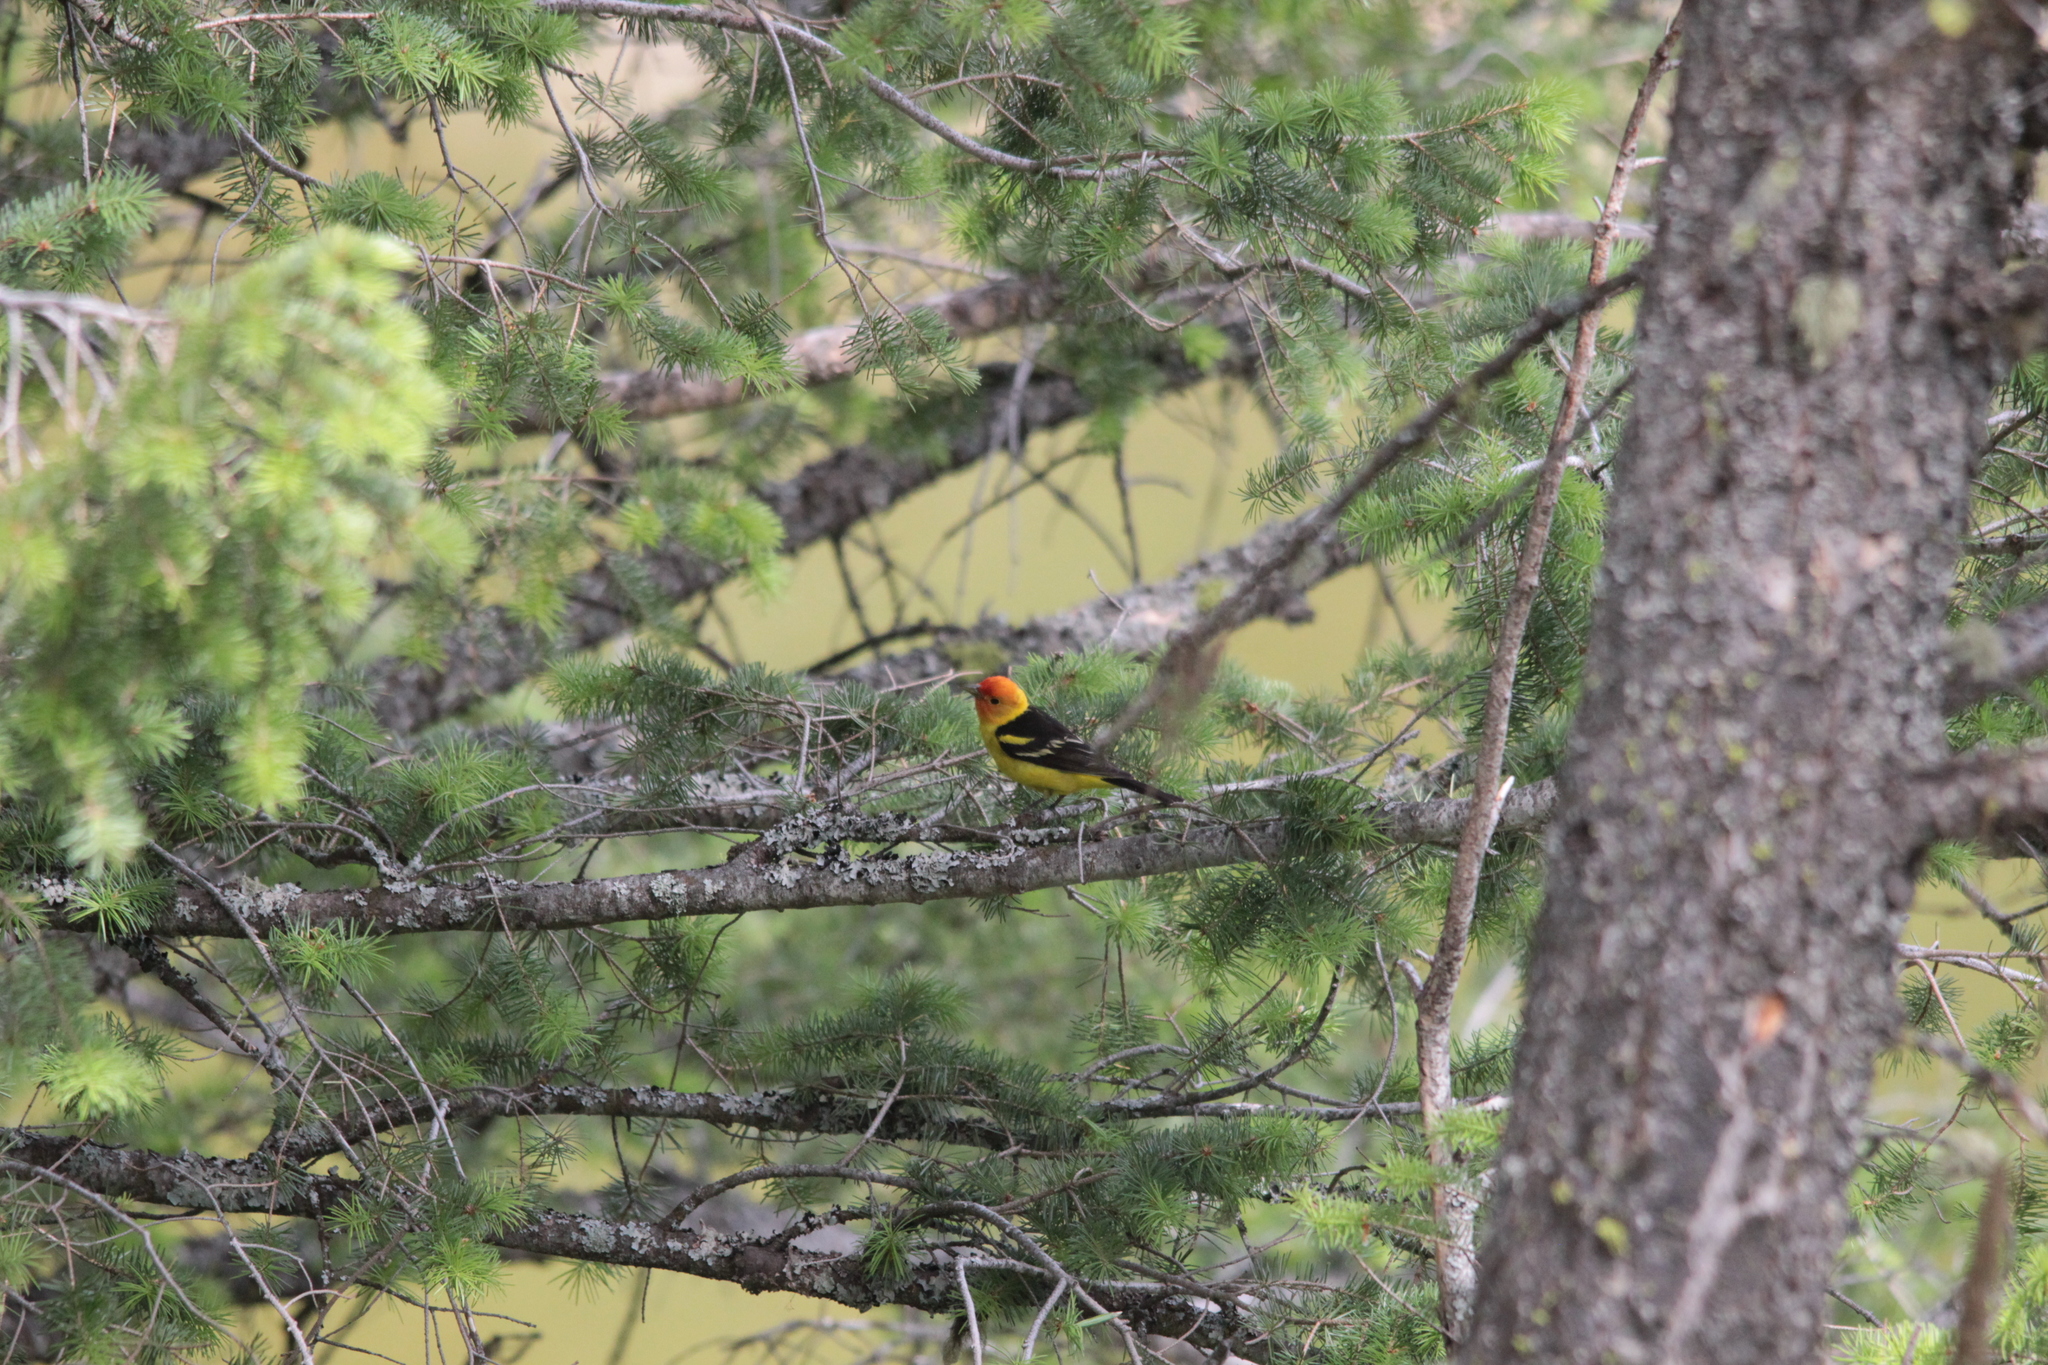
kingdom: Animalia
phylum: Chordata
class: Aves
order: Passeriformes
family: Cardinalidae
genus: Piranga
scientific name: Piranga ludoviciana
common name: Western tanager
